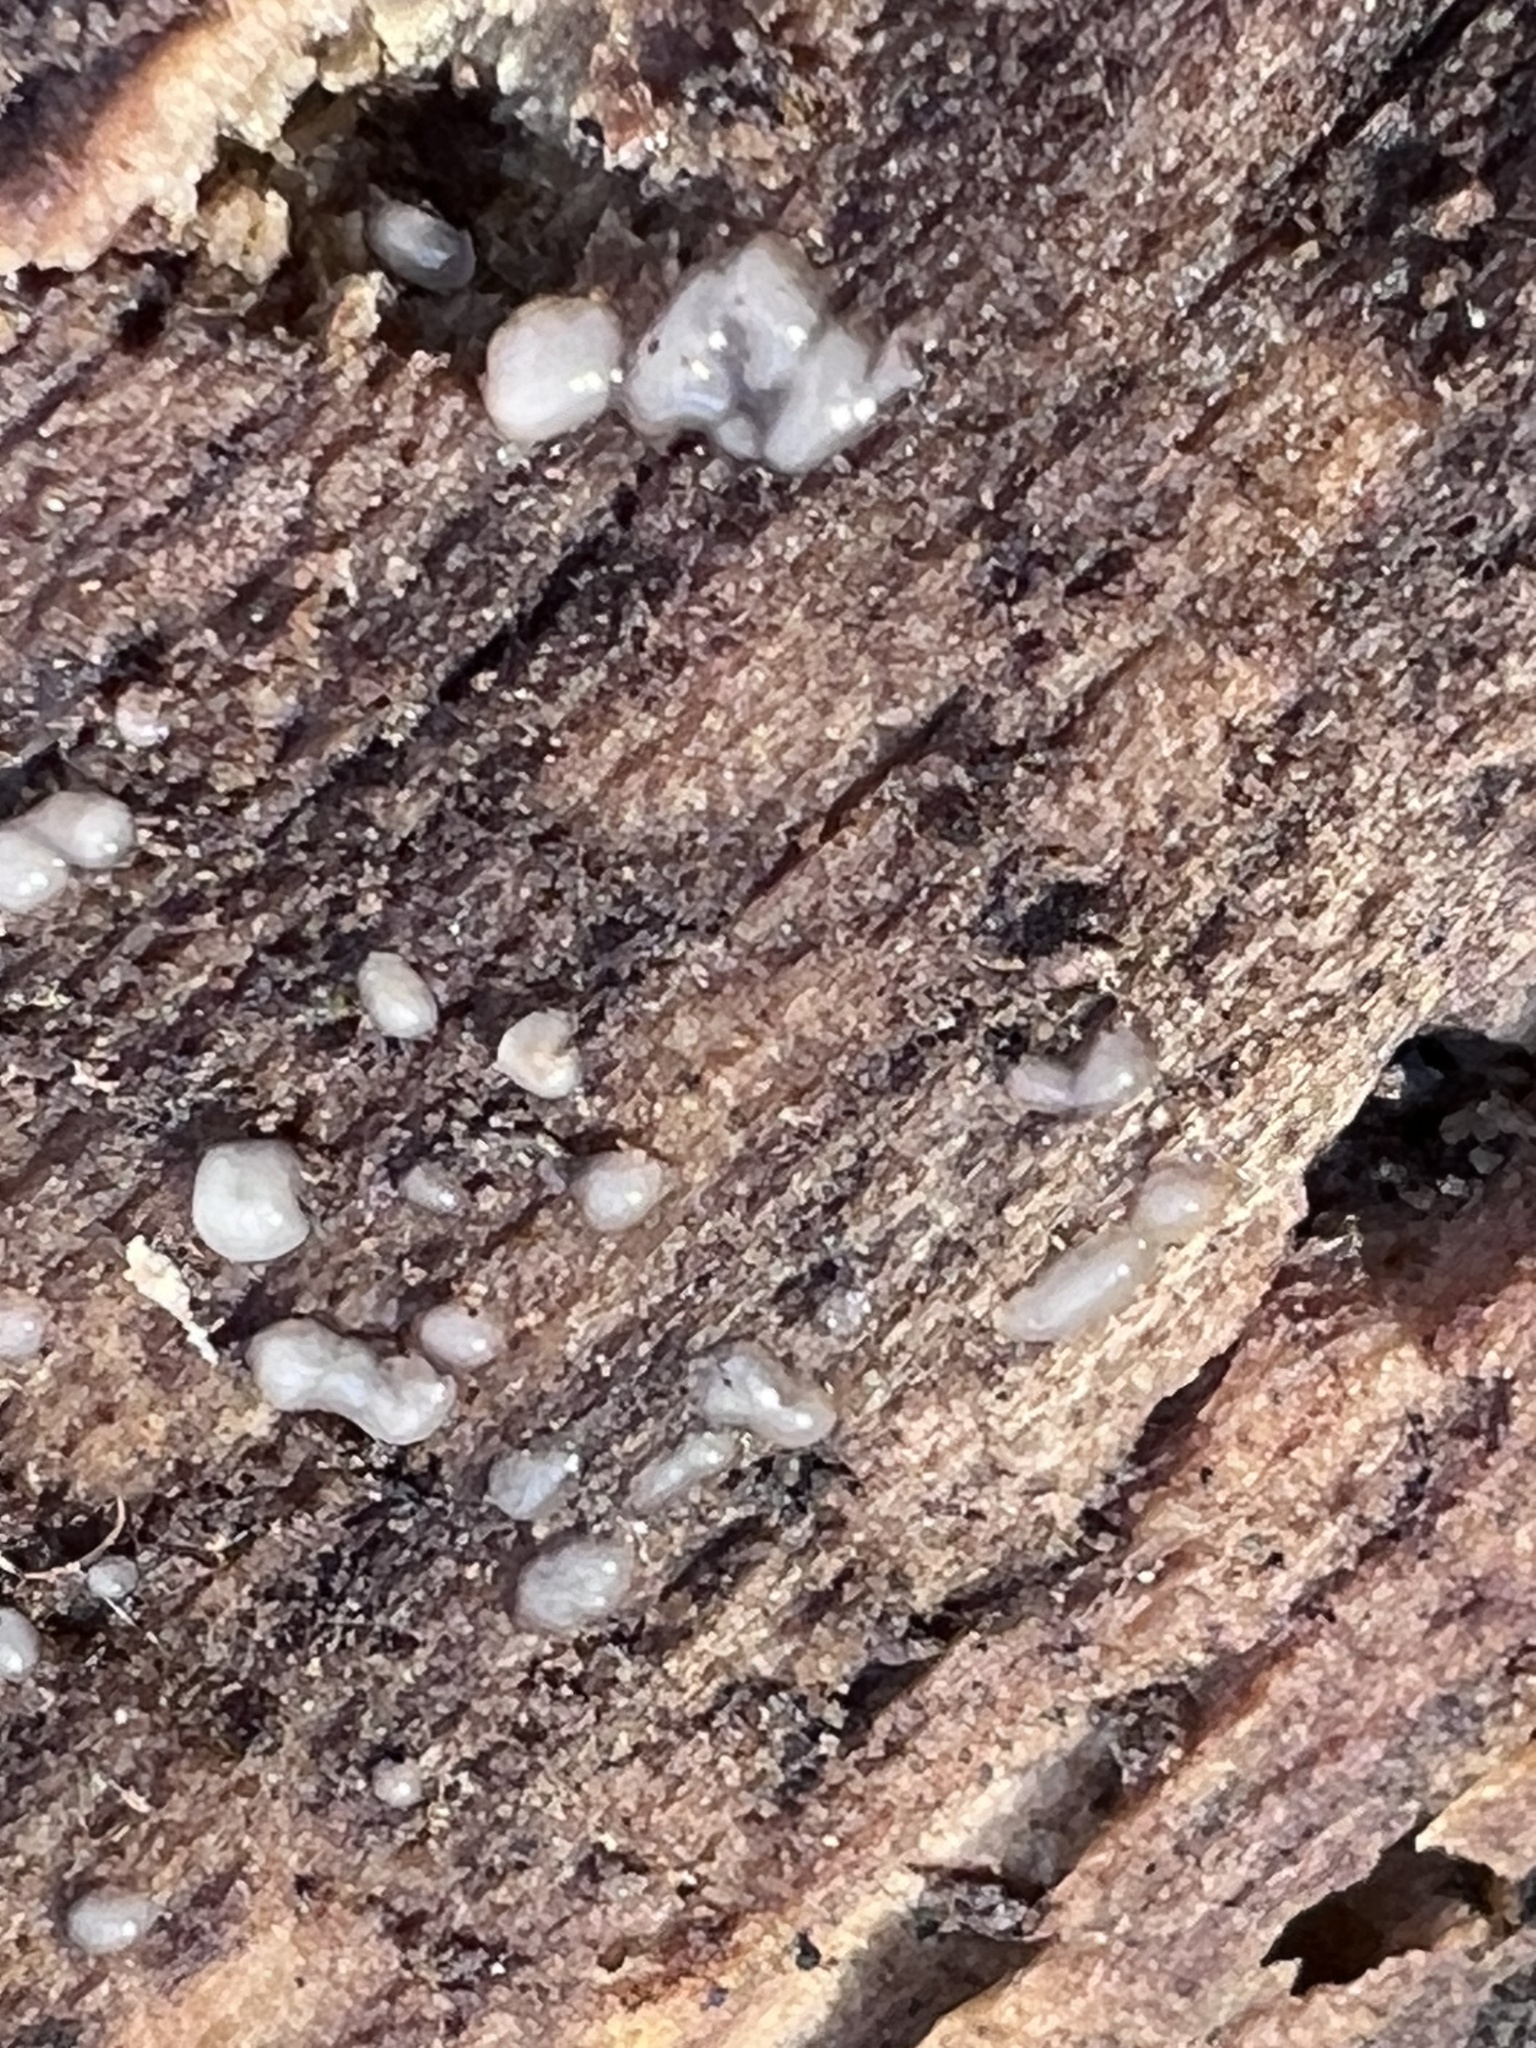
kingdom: Fungi
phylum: Basidiomycota
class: Atractiellomycetes
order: Atractiellales
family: Phleogenaceae
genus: Helicogloea
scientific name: Helicogloea compressa
